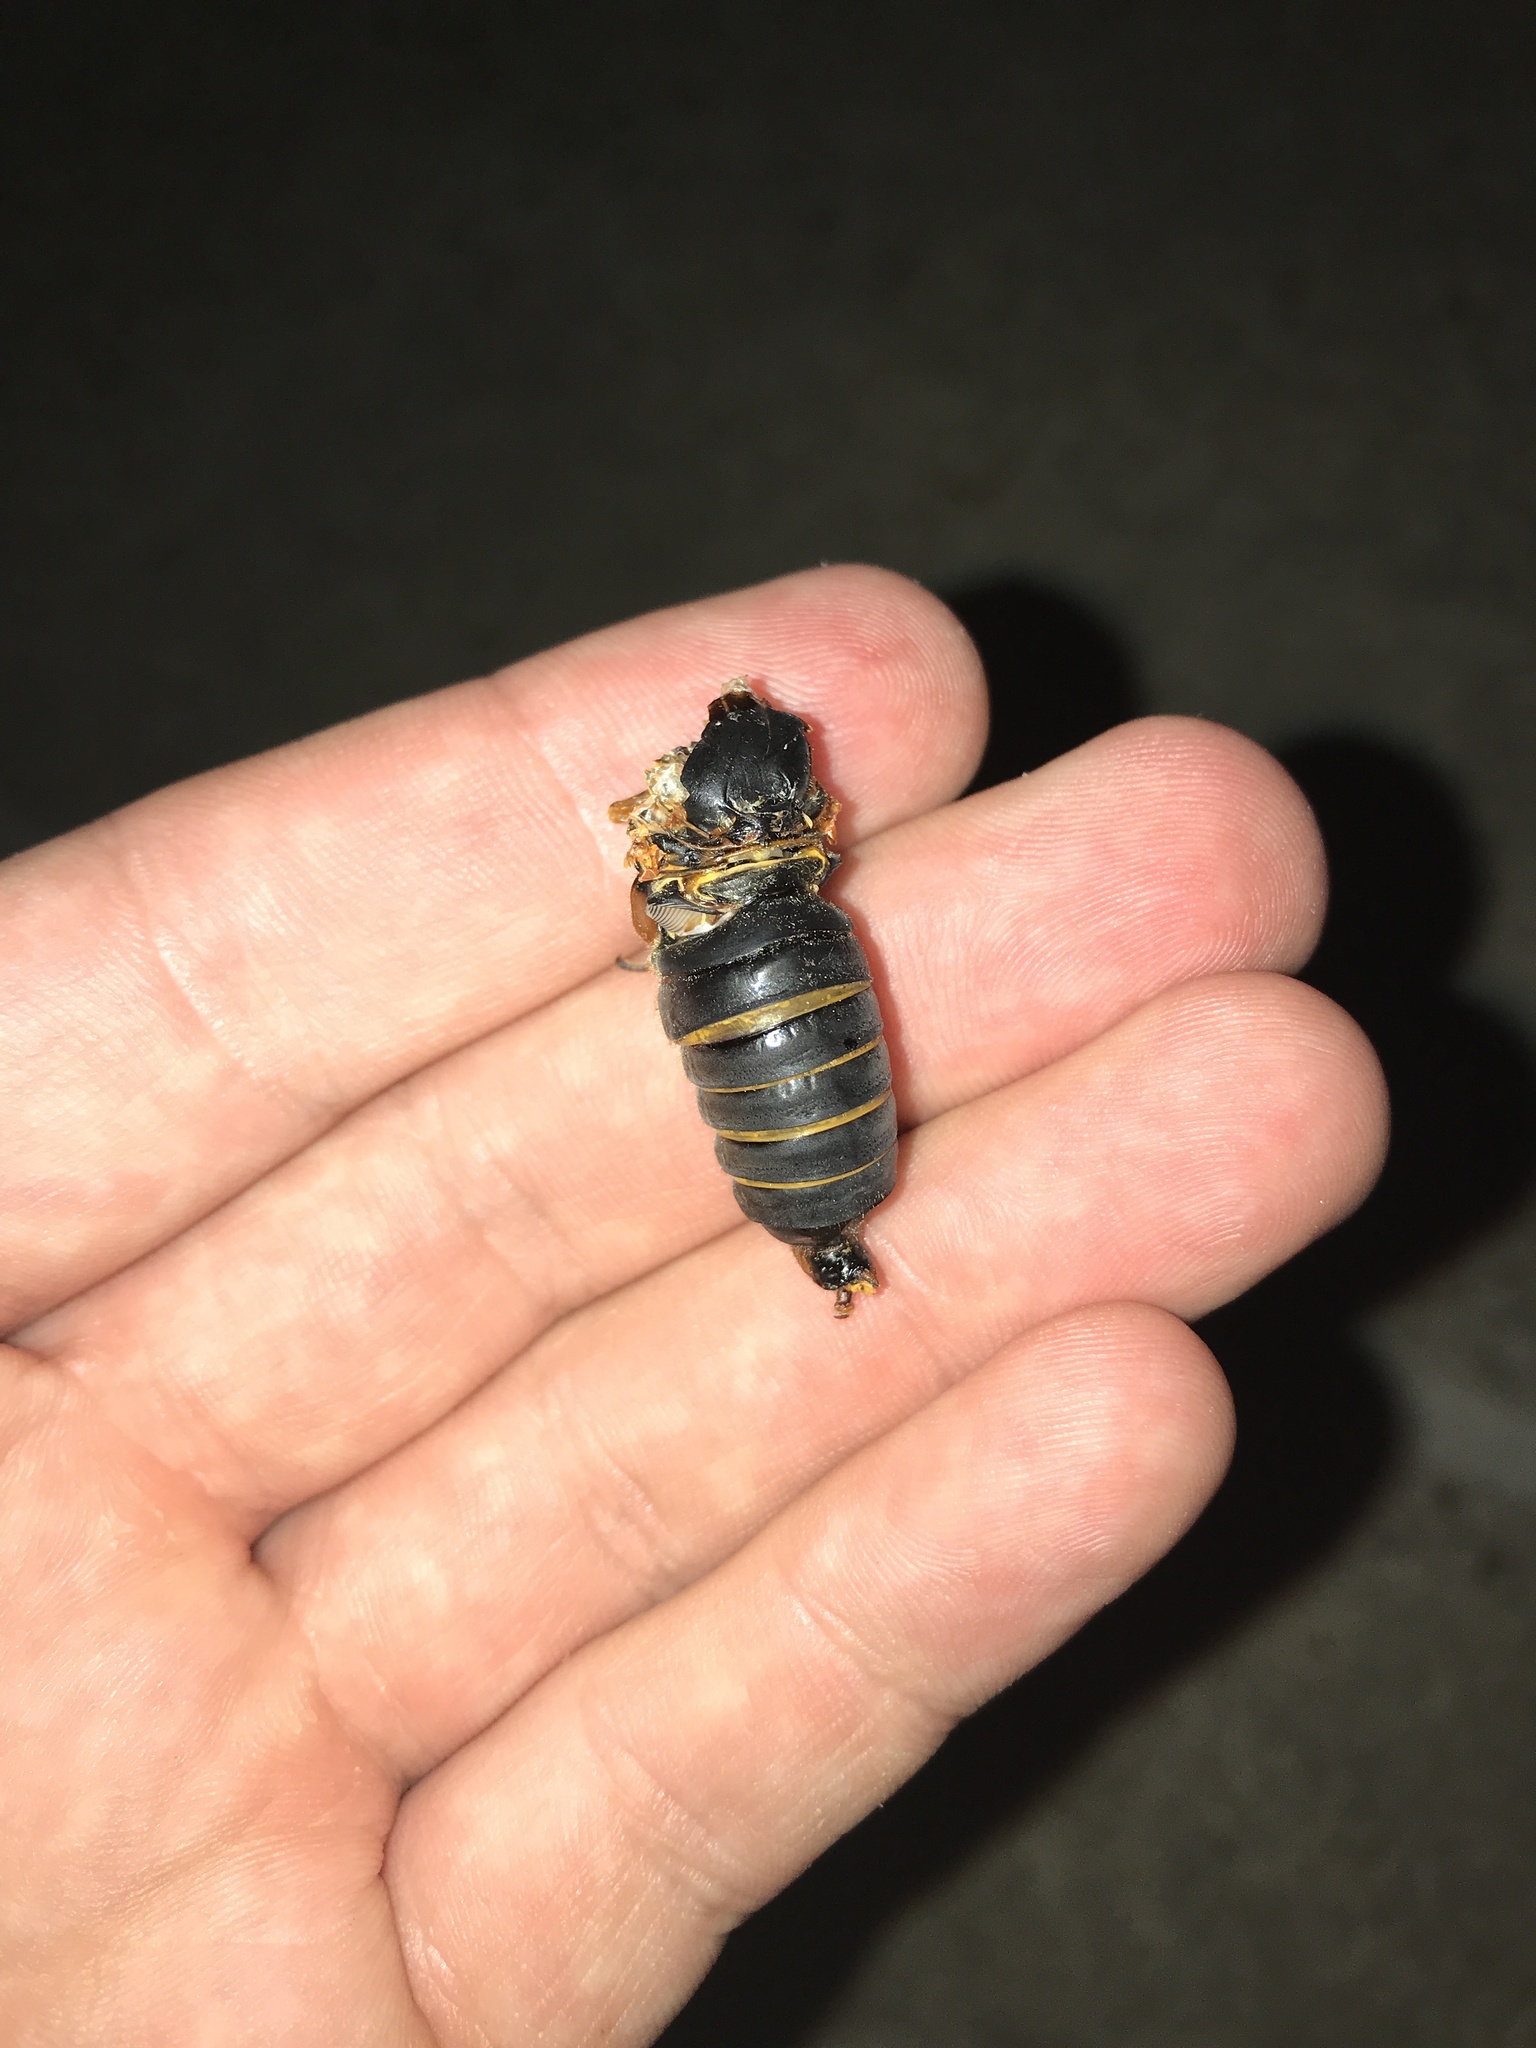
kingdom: Animalia
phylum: Arthropoda
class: Insecta
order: Hemiptera
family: Cicadidae
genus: Magicicada
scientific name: Magicicada
